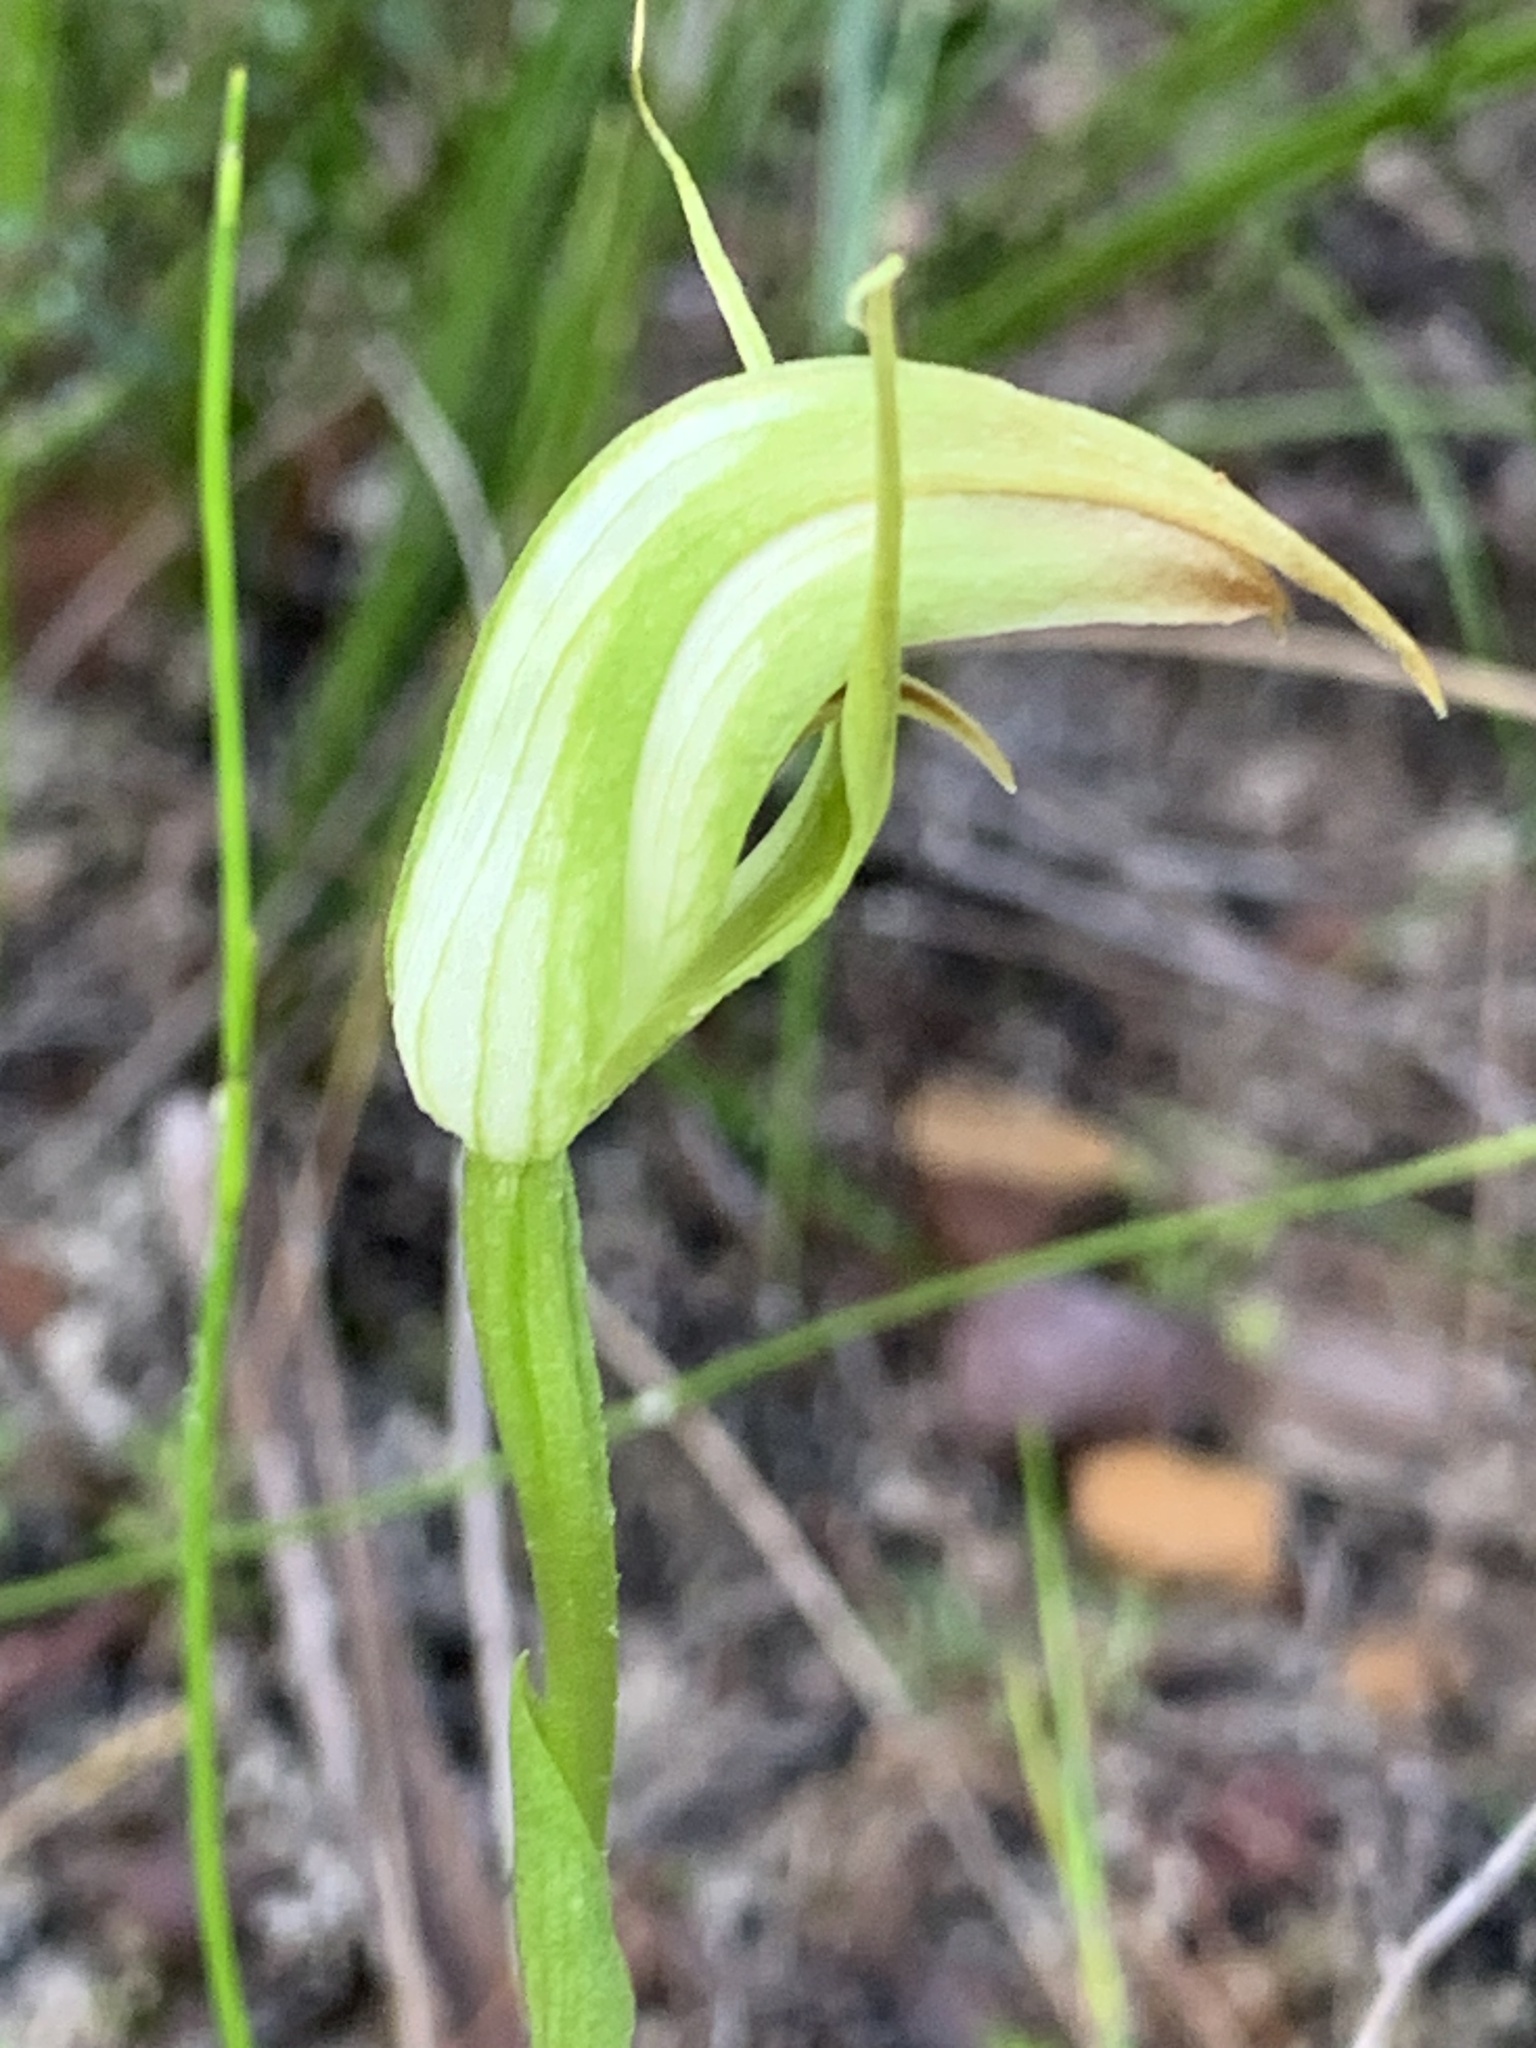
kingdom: Plantae
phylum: Tracheophyta
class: Liliopsida
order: Asparagales
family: Orchidaceae
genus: Pterostylis
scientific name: Pterostylis acuminata
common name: Pointed greenhood
